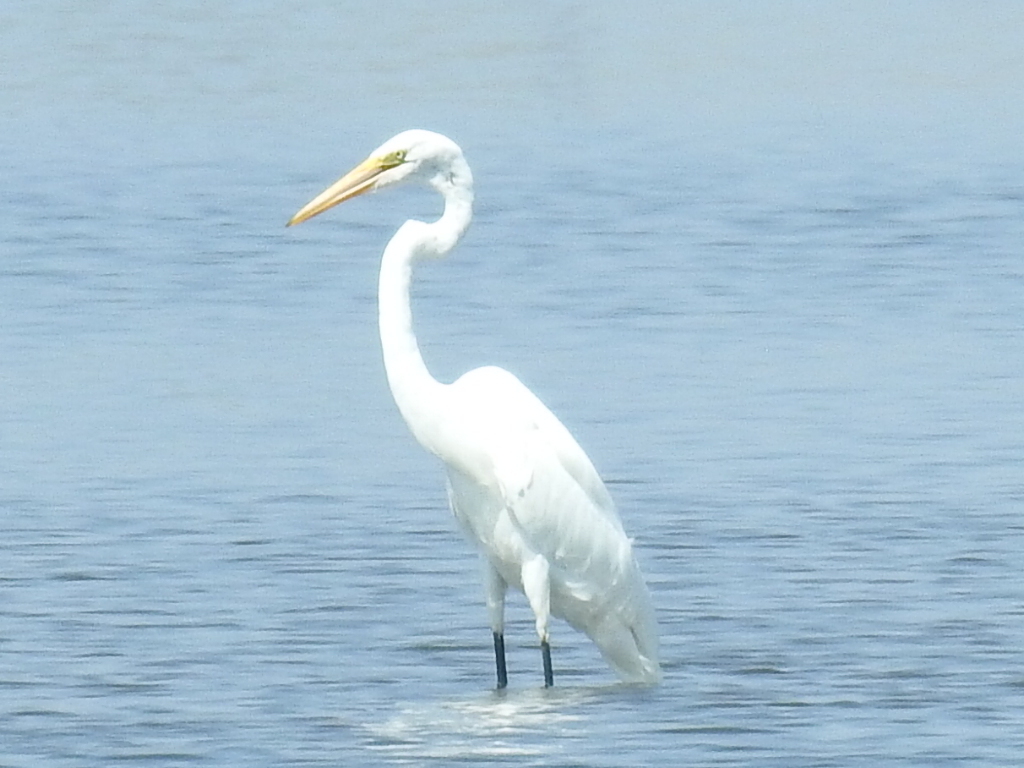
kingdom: Animalia
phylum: Chordata
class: Aves
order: Pelecaniformes
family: Ardeidae
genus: Ardea
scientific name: Ardea alba
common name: Great egret
